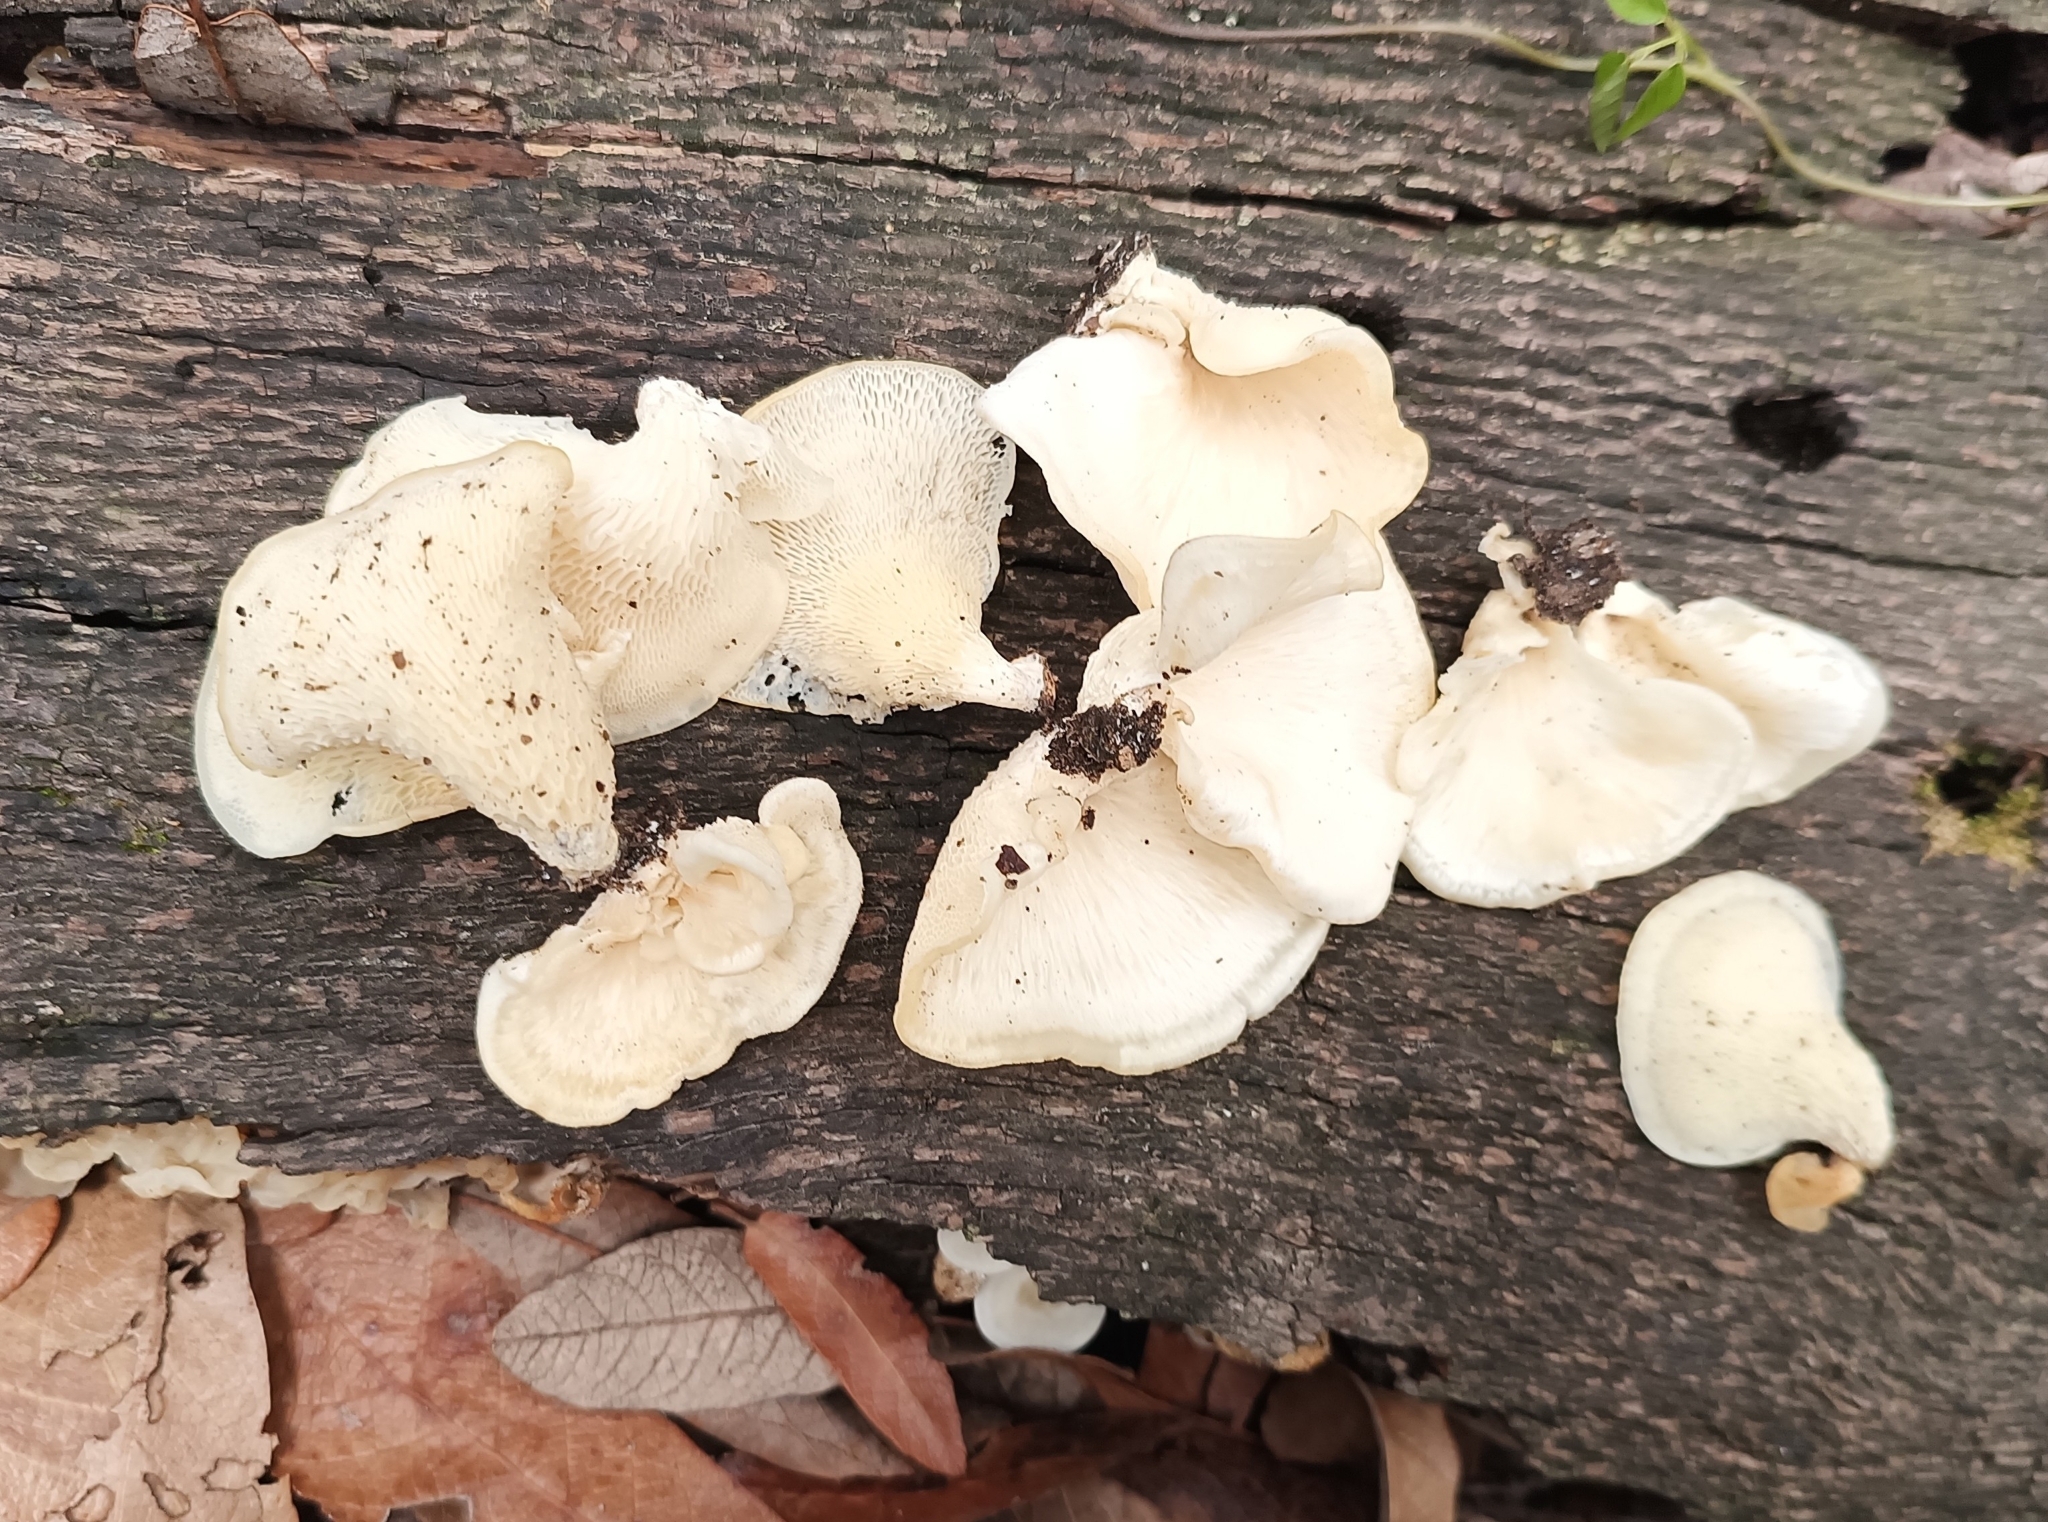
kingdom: Fungi
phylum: Basidiomycota
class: Agaricomycetes
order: Polyporales
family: Polyporaceae
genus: Favolus
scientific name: Favolus tenuiculus
